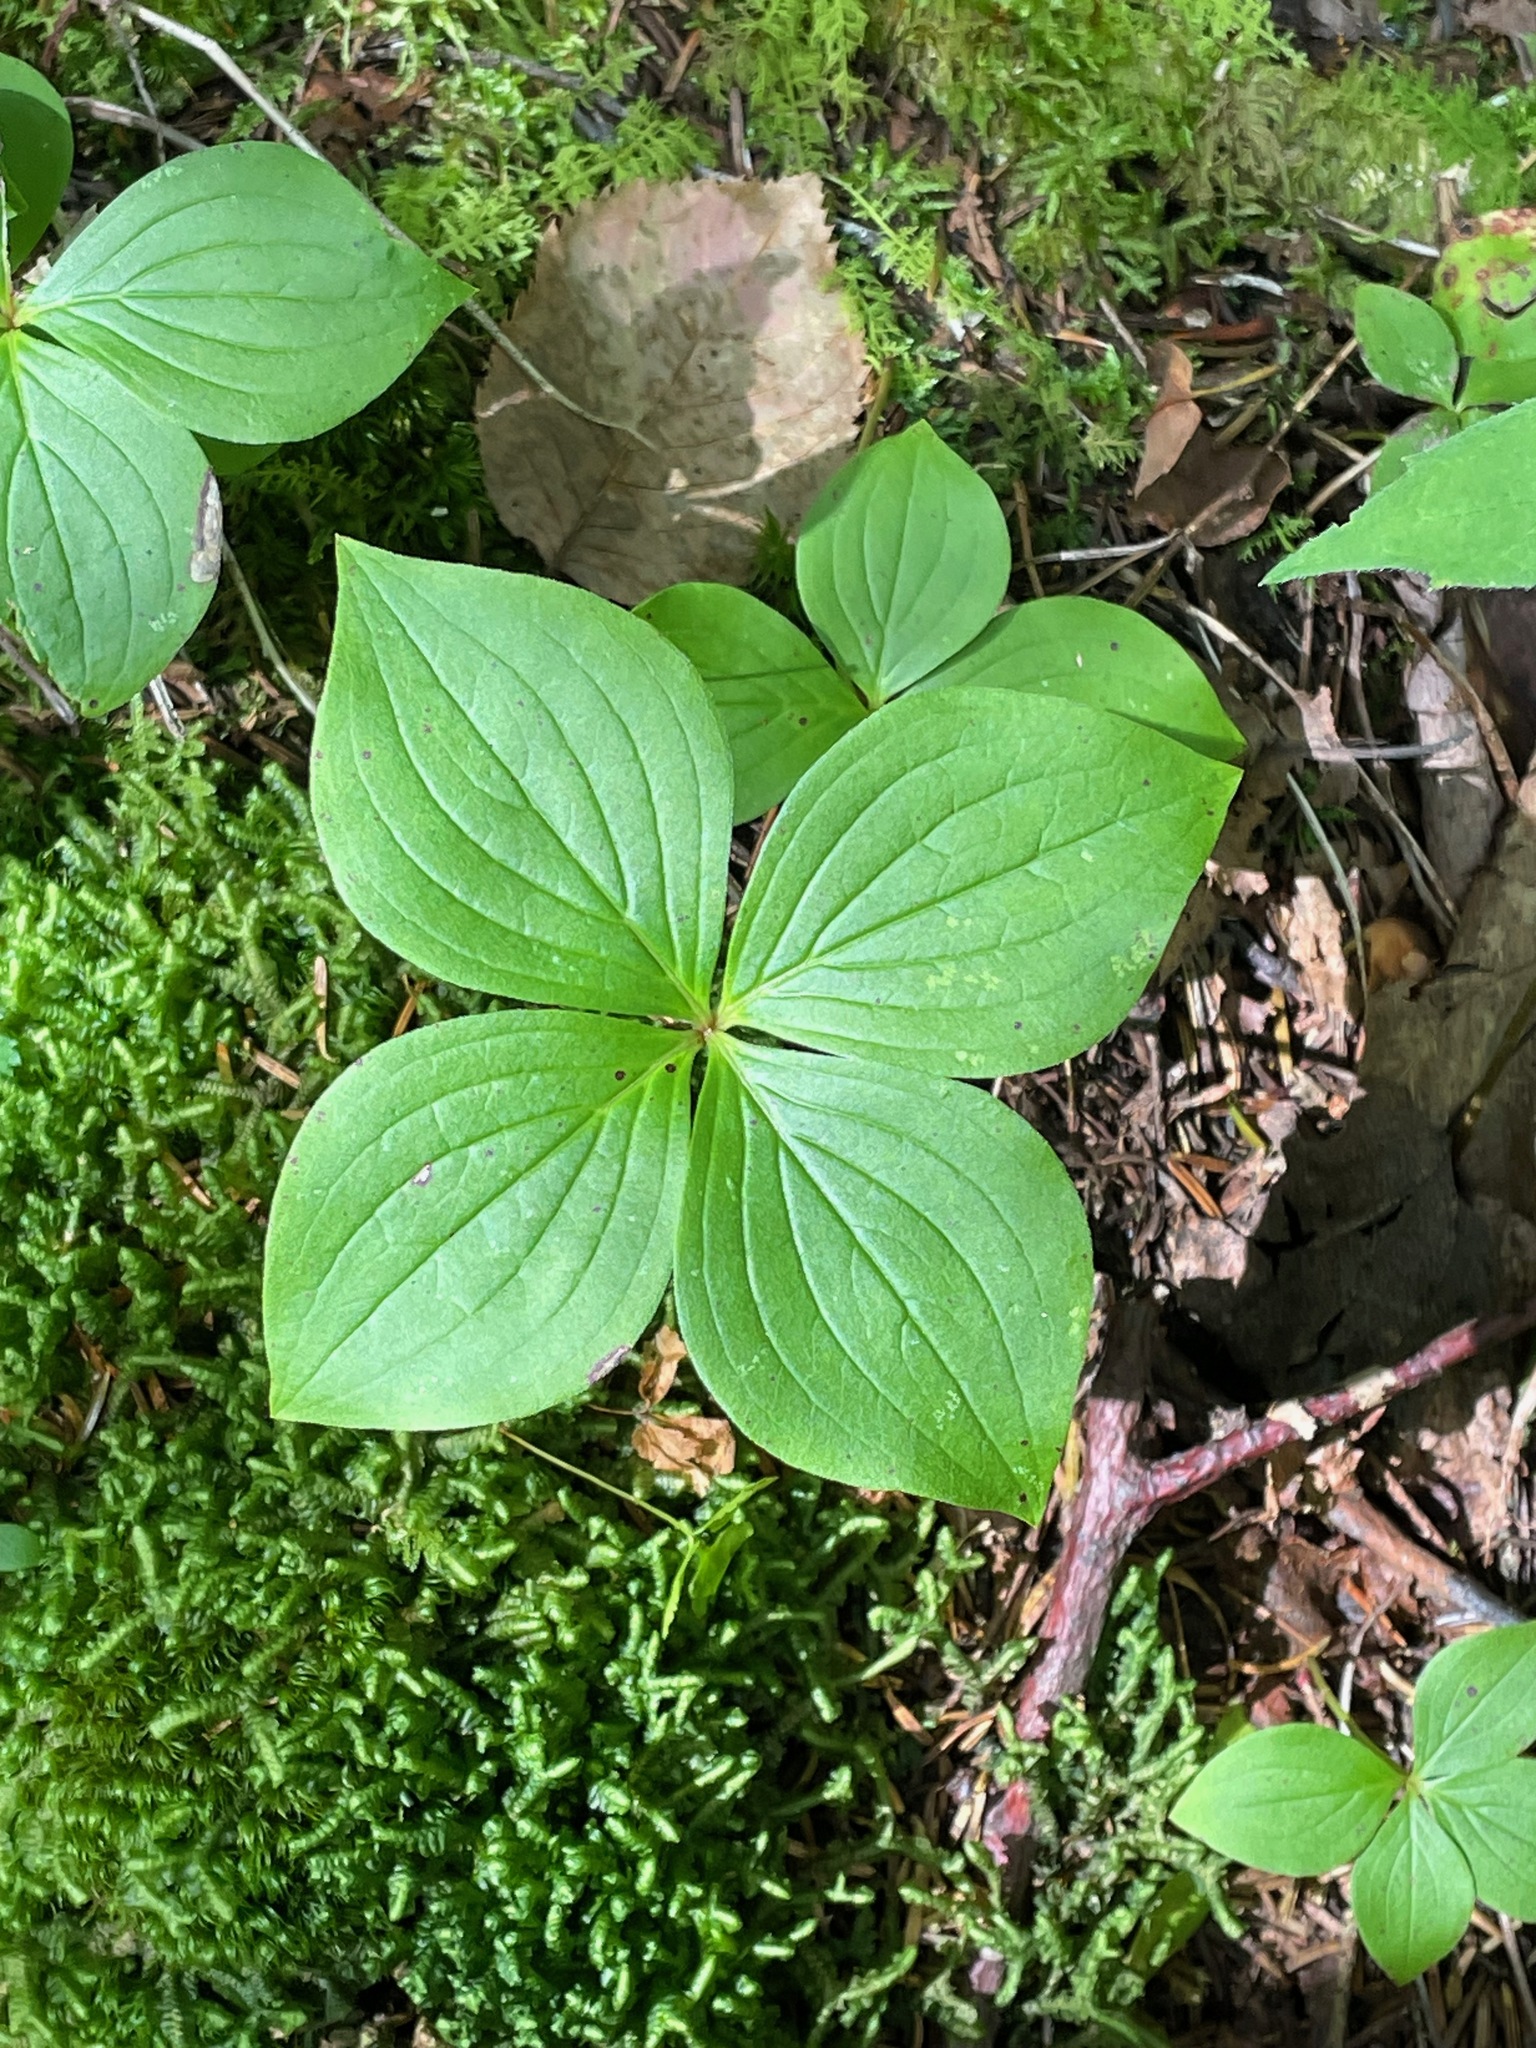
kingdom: Plantae
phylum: Tracheophyta
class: Magnoliopsida
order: Cornales
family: Cornaceae
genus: Cornus
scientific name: Cornus canadensis
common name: Creeping dogwood
